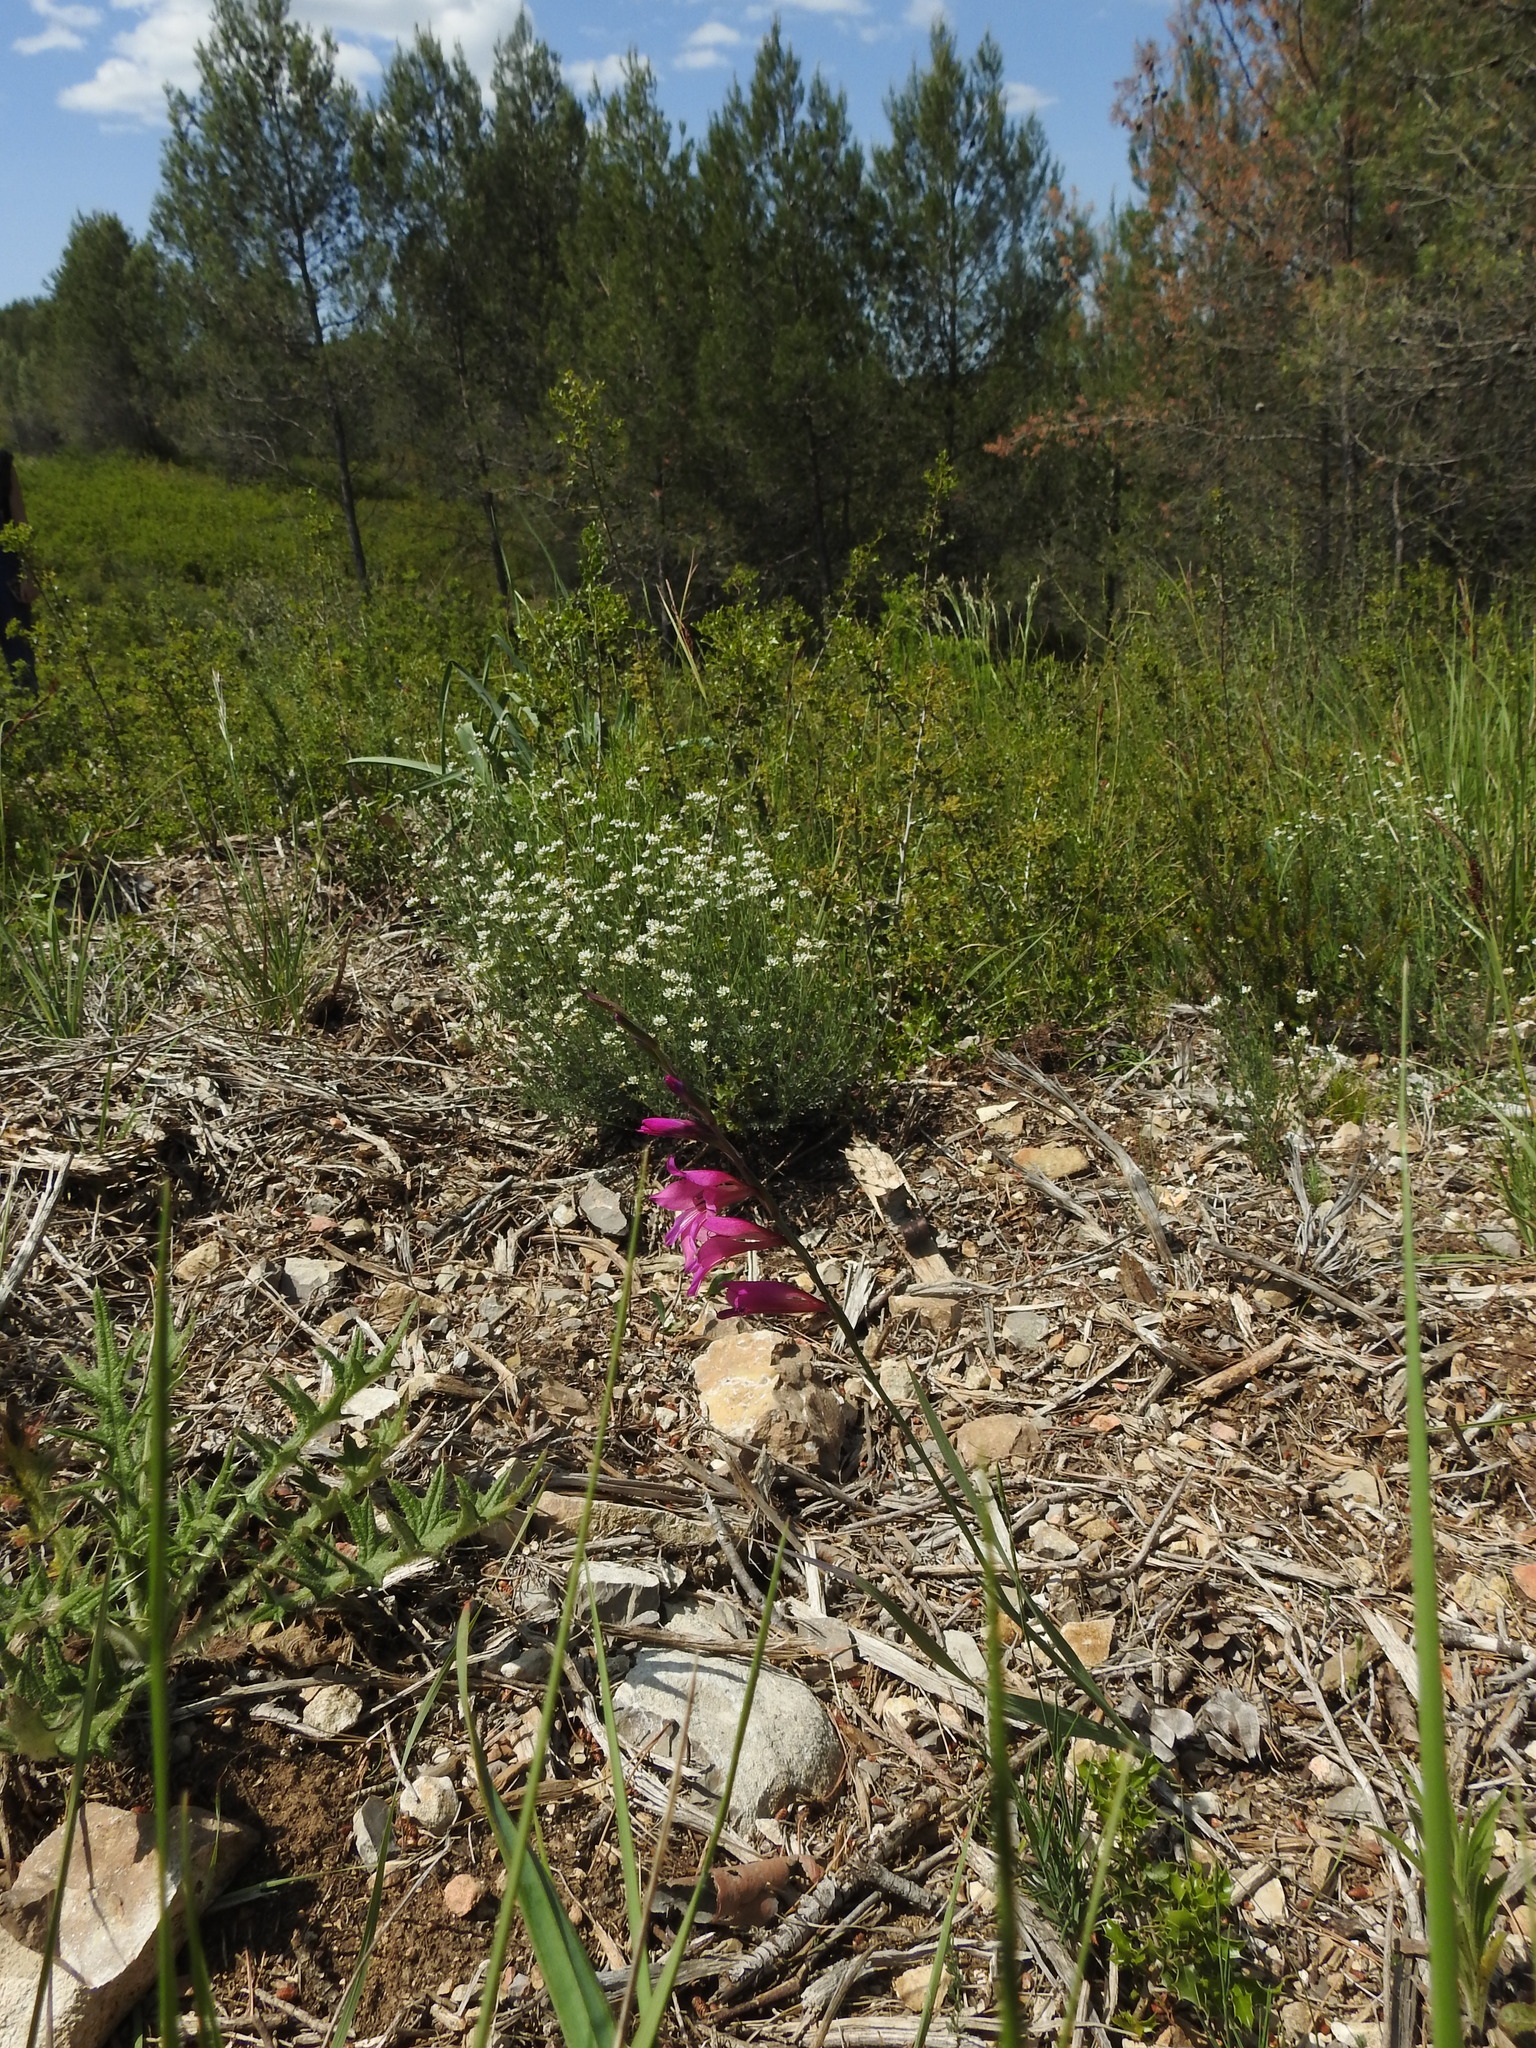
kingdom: Plantae
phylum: Tracheophyta
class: Liliopsida
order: Asparagales
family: Iridaceae
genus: Gladiolus
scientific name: Gladiolus dubius
